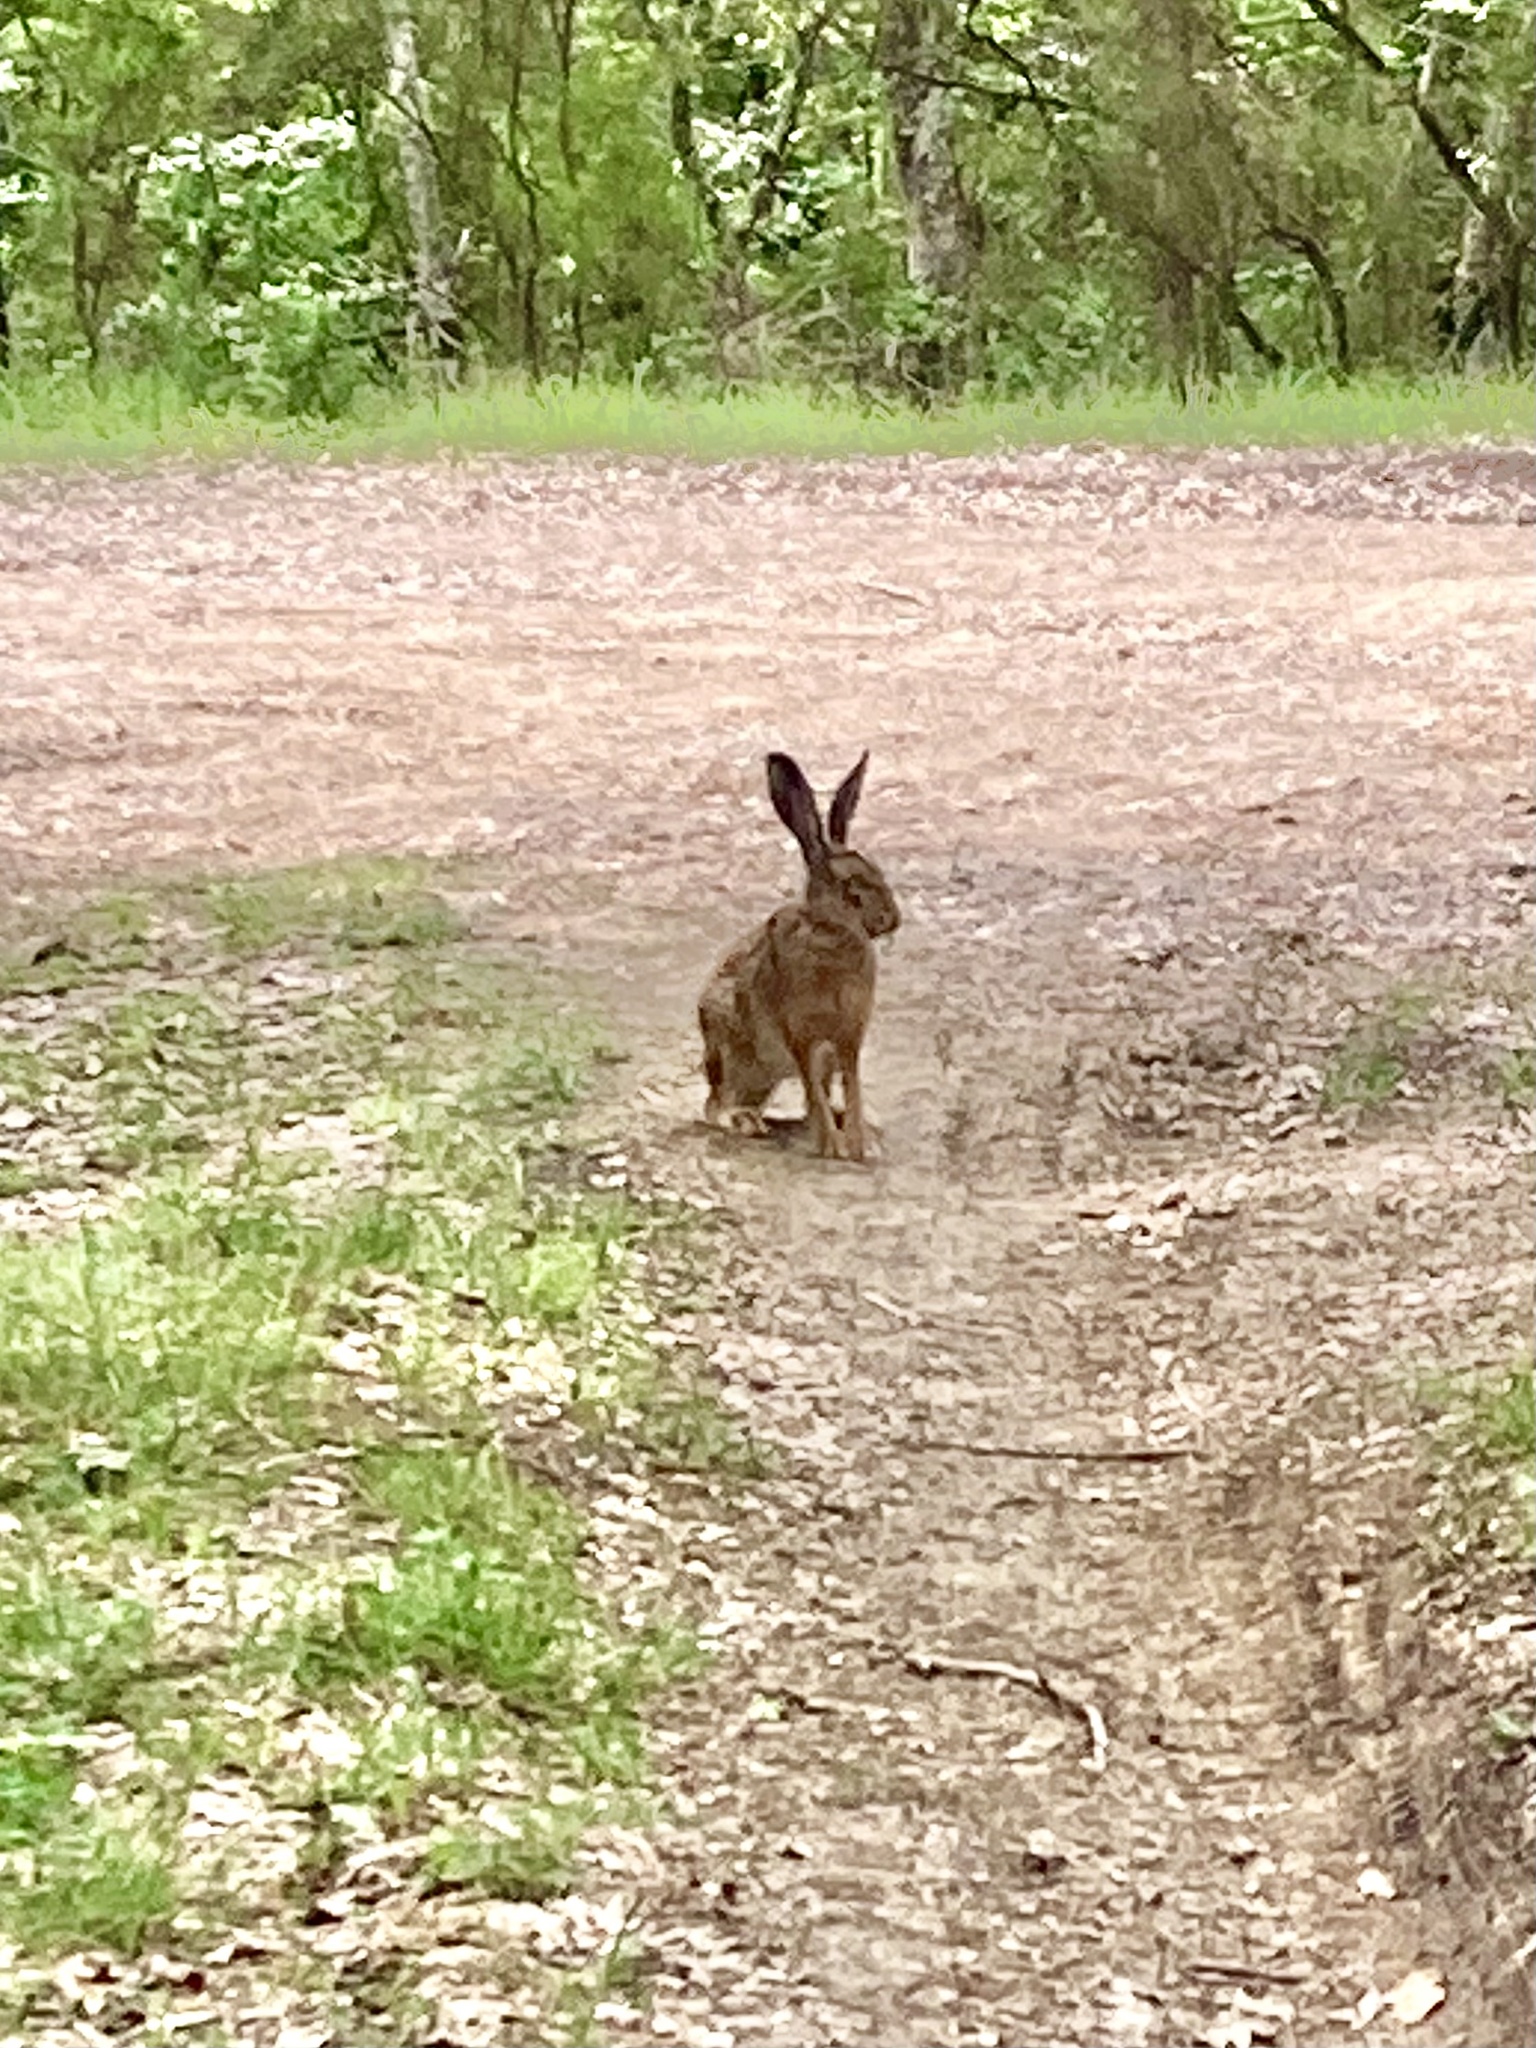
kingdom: Animalia
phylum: Chordata
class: Mammalia
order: Lagomorpha
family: Leporidae
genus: Lepus
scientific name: Lepus europaeus
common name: European hare
